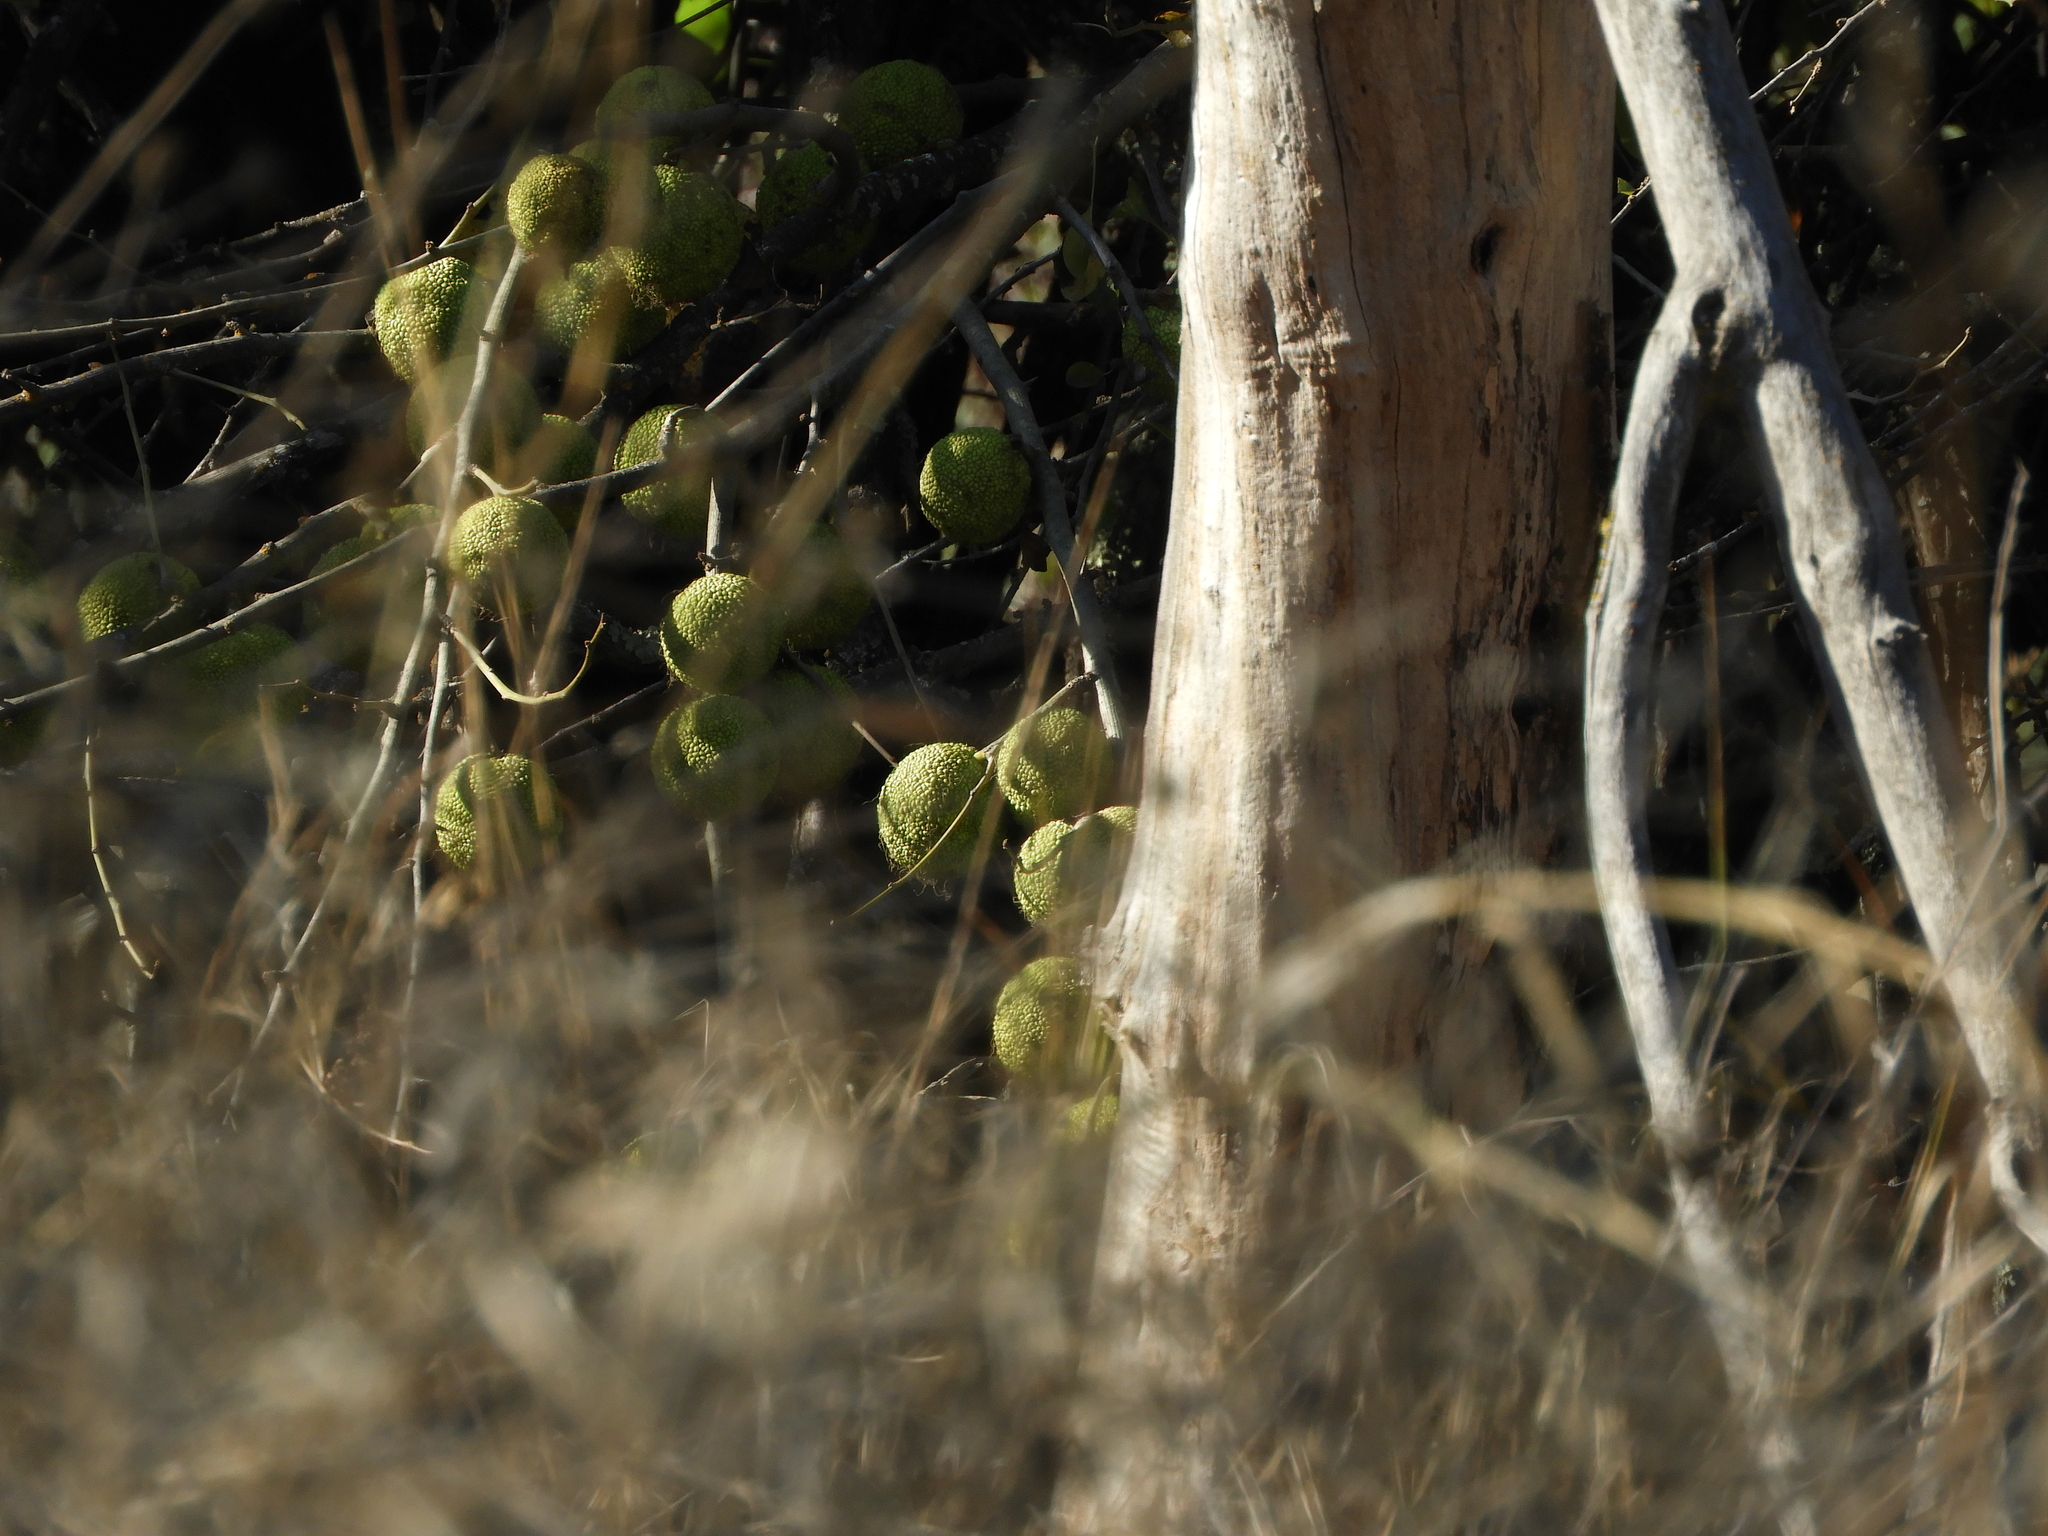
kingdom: Plantae
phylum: Tracheophyta
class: Magnoliopsida
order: Rosales
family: Moraceae
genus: Maclura
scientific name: Maclura pomifera
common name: Osage-orange
